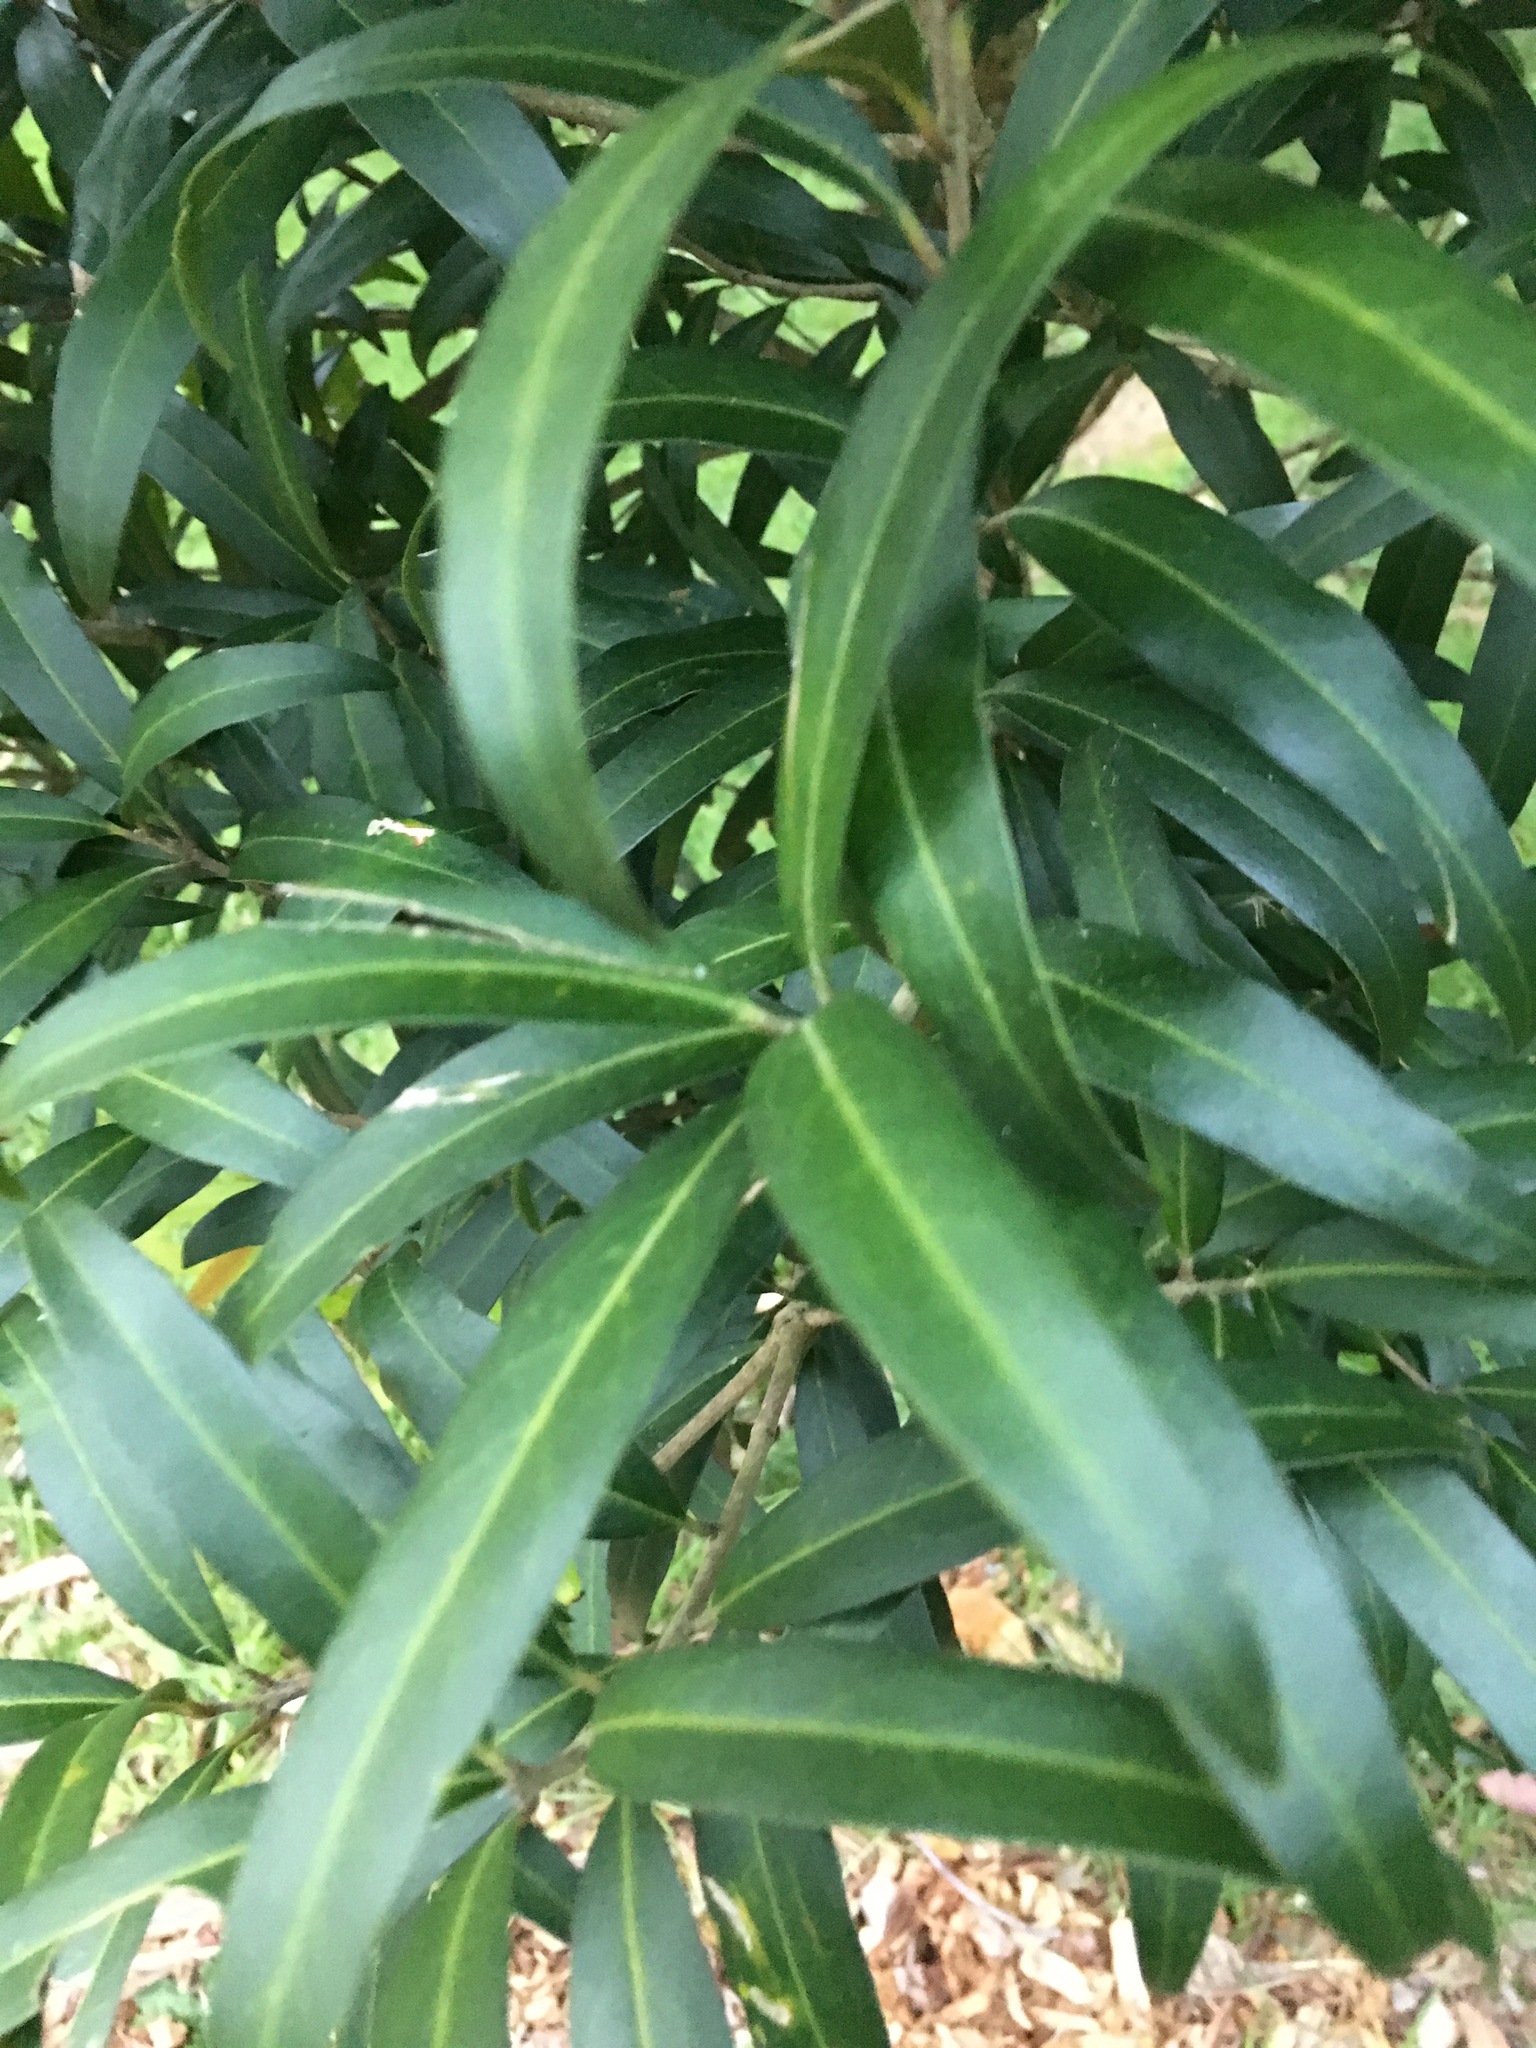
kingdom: Plantae
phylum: Tracheophyta
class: Magnoliopsida
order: Lamiales
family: Oleaceae
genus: Nestegis
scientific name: Nestegis lanceolata
